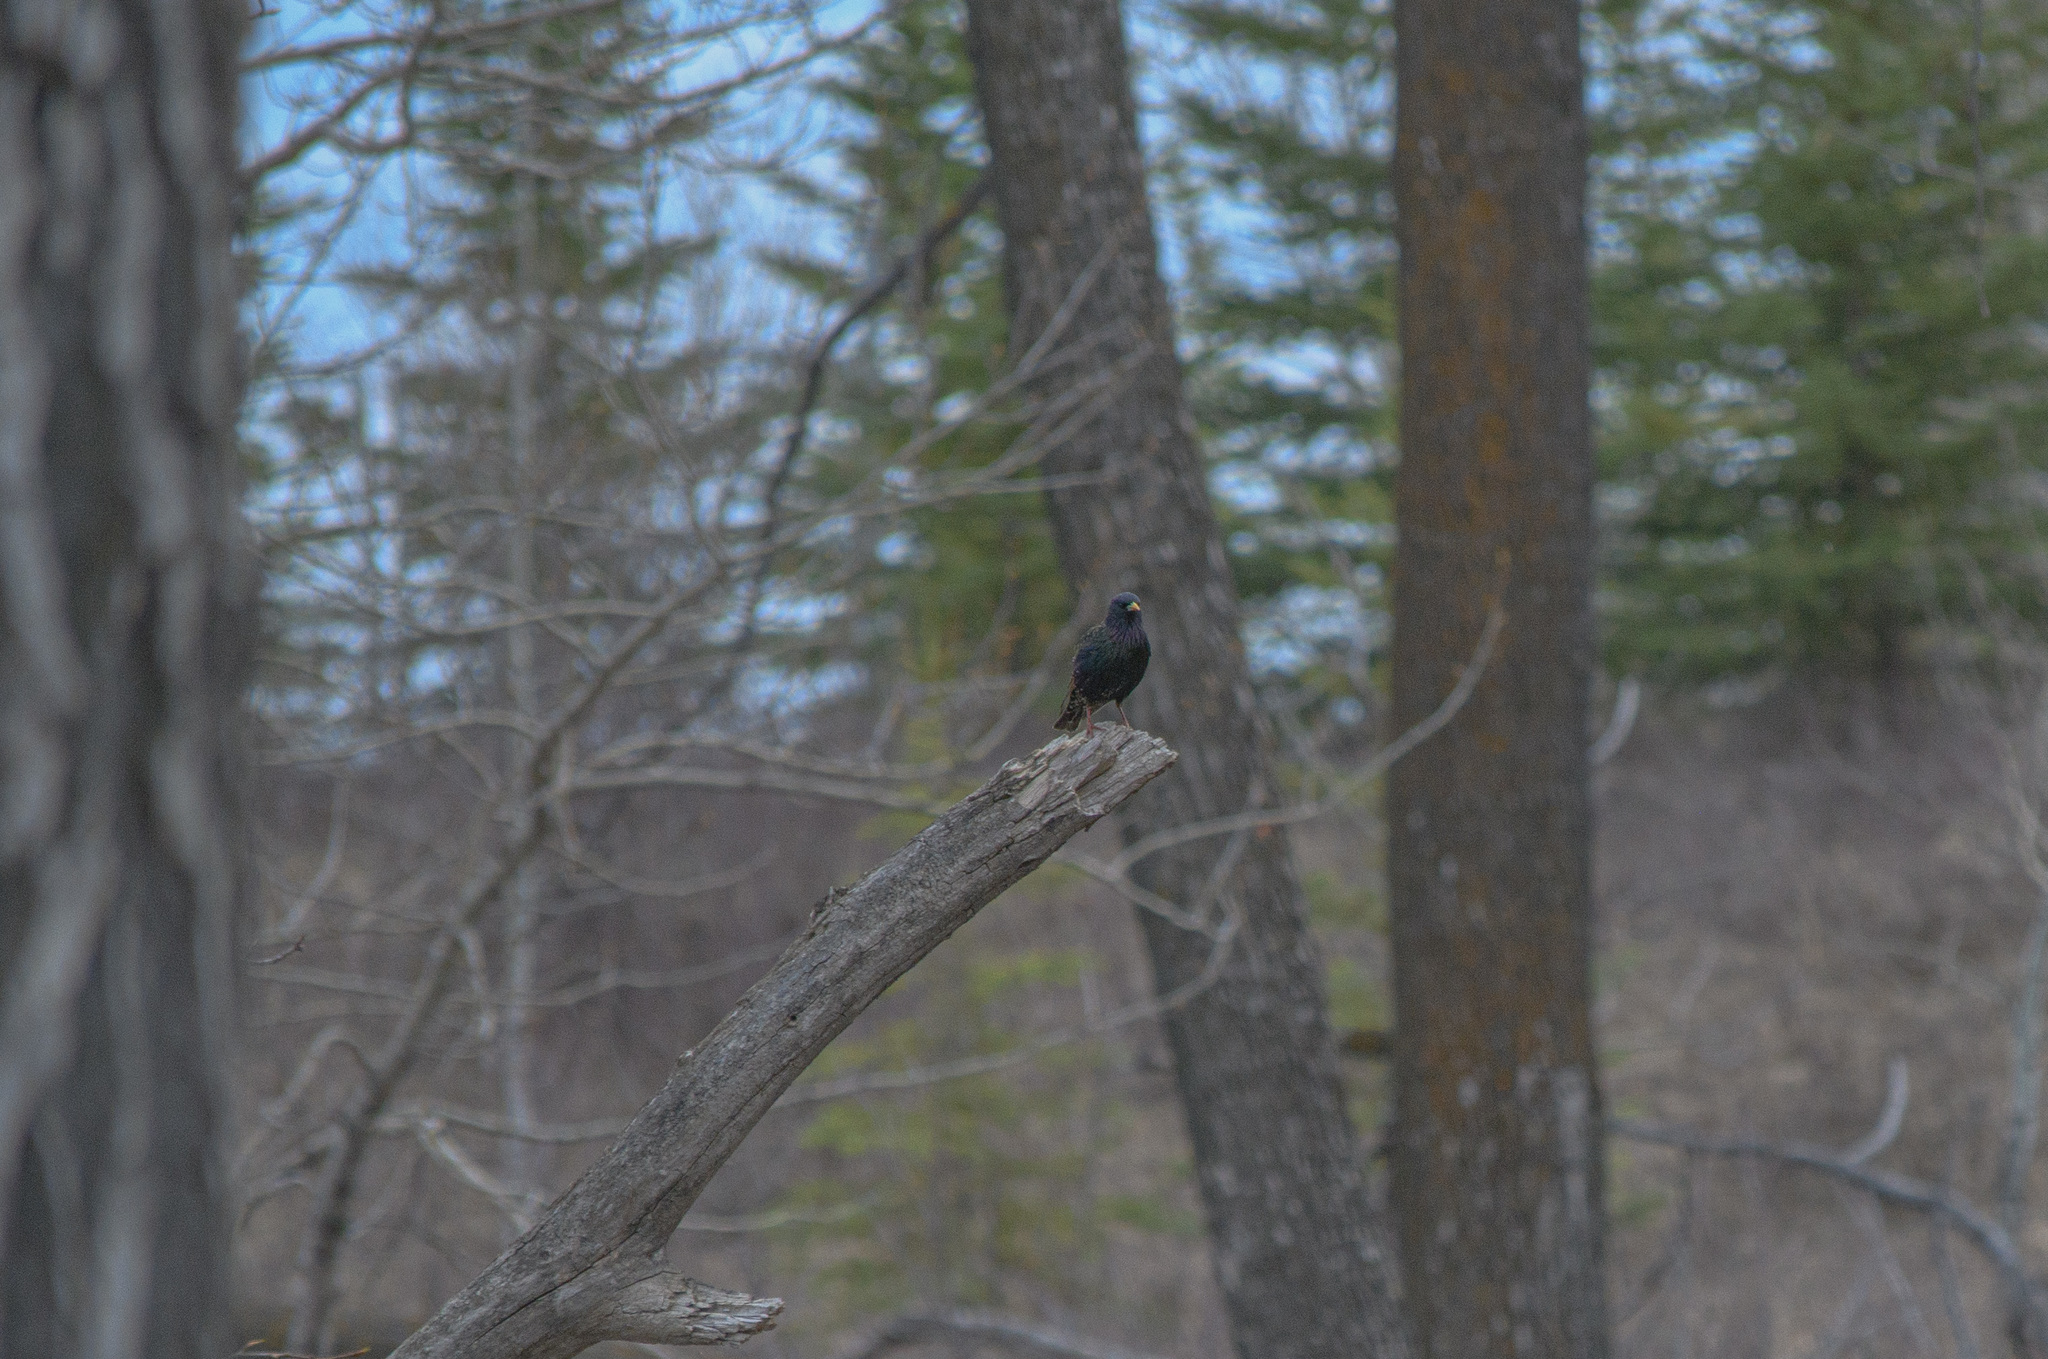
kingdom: Animalia
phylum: Chordata
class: Aves
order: Passeriformes
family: Sturnidae
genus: Sturnus
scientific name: Sturnus vulgaris
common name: Common starling
